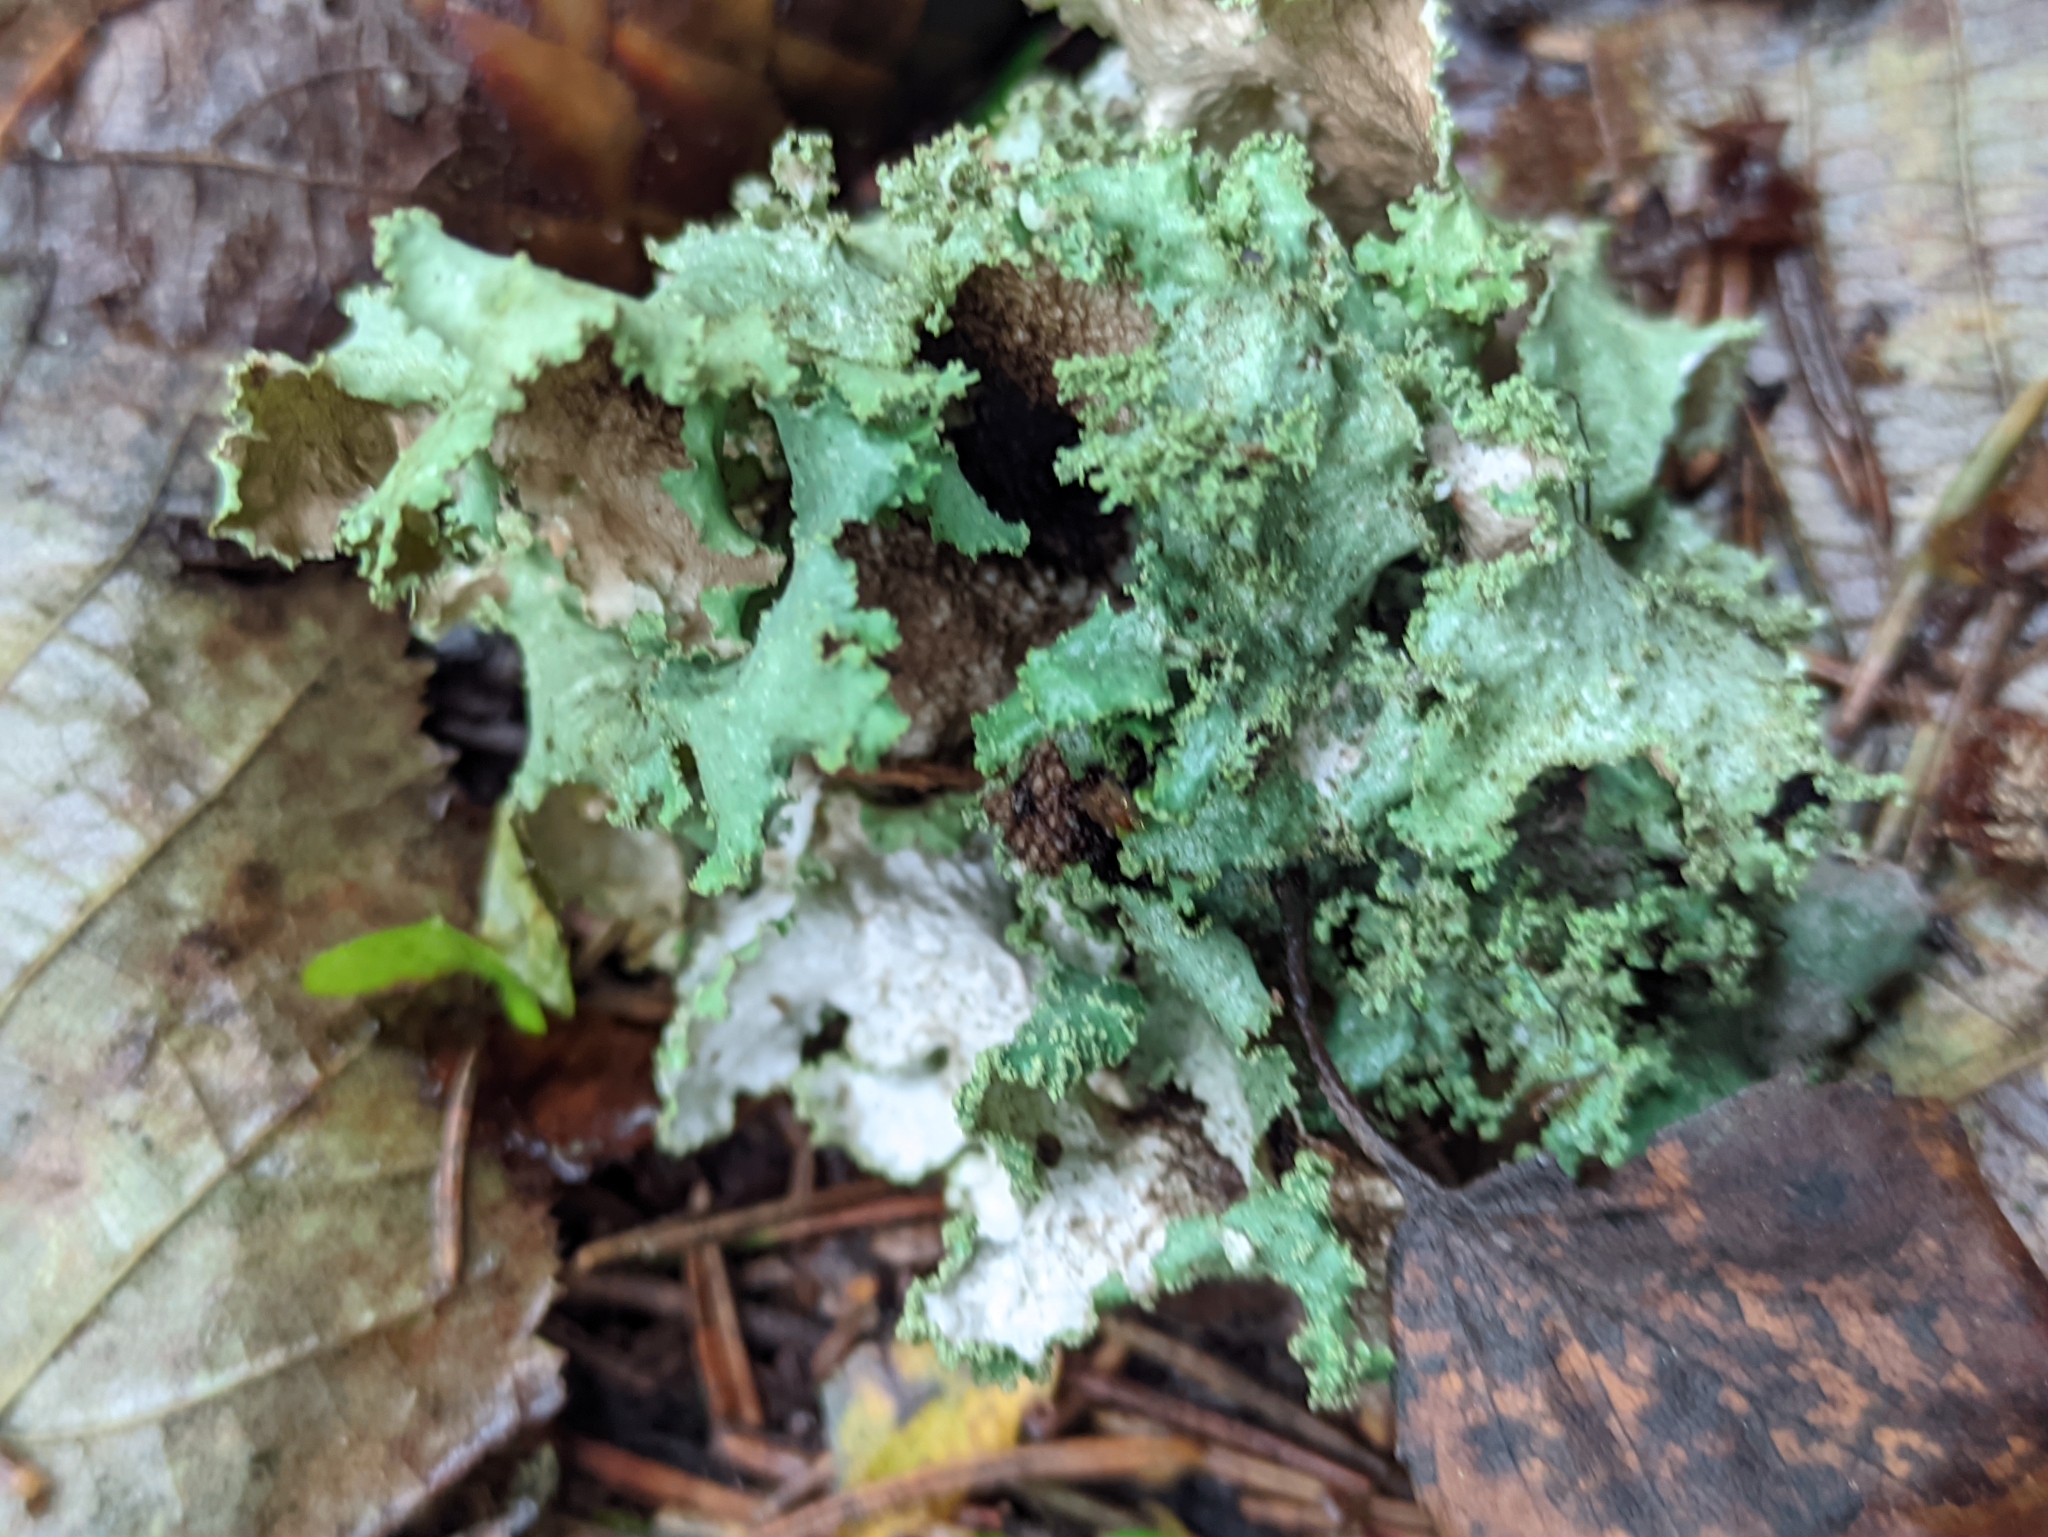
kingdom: Fungi
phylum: Ascomycota
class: Lecanoromycetes
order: Lecanorales
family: Parmeliaceae
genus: Platismatia
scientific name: Platismatia glauca
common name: Varied rag lichen
